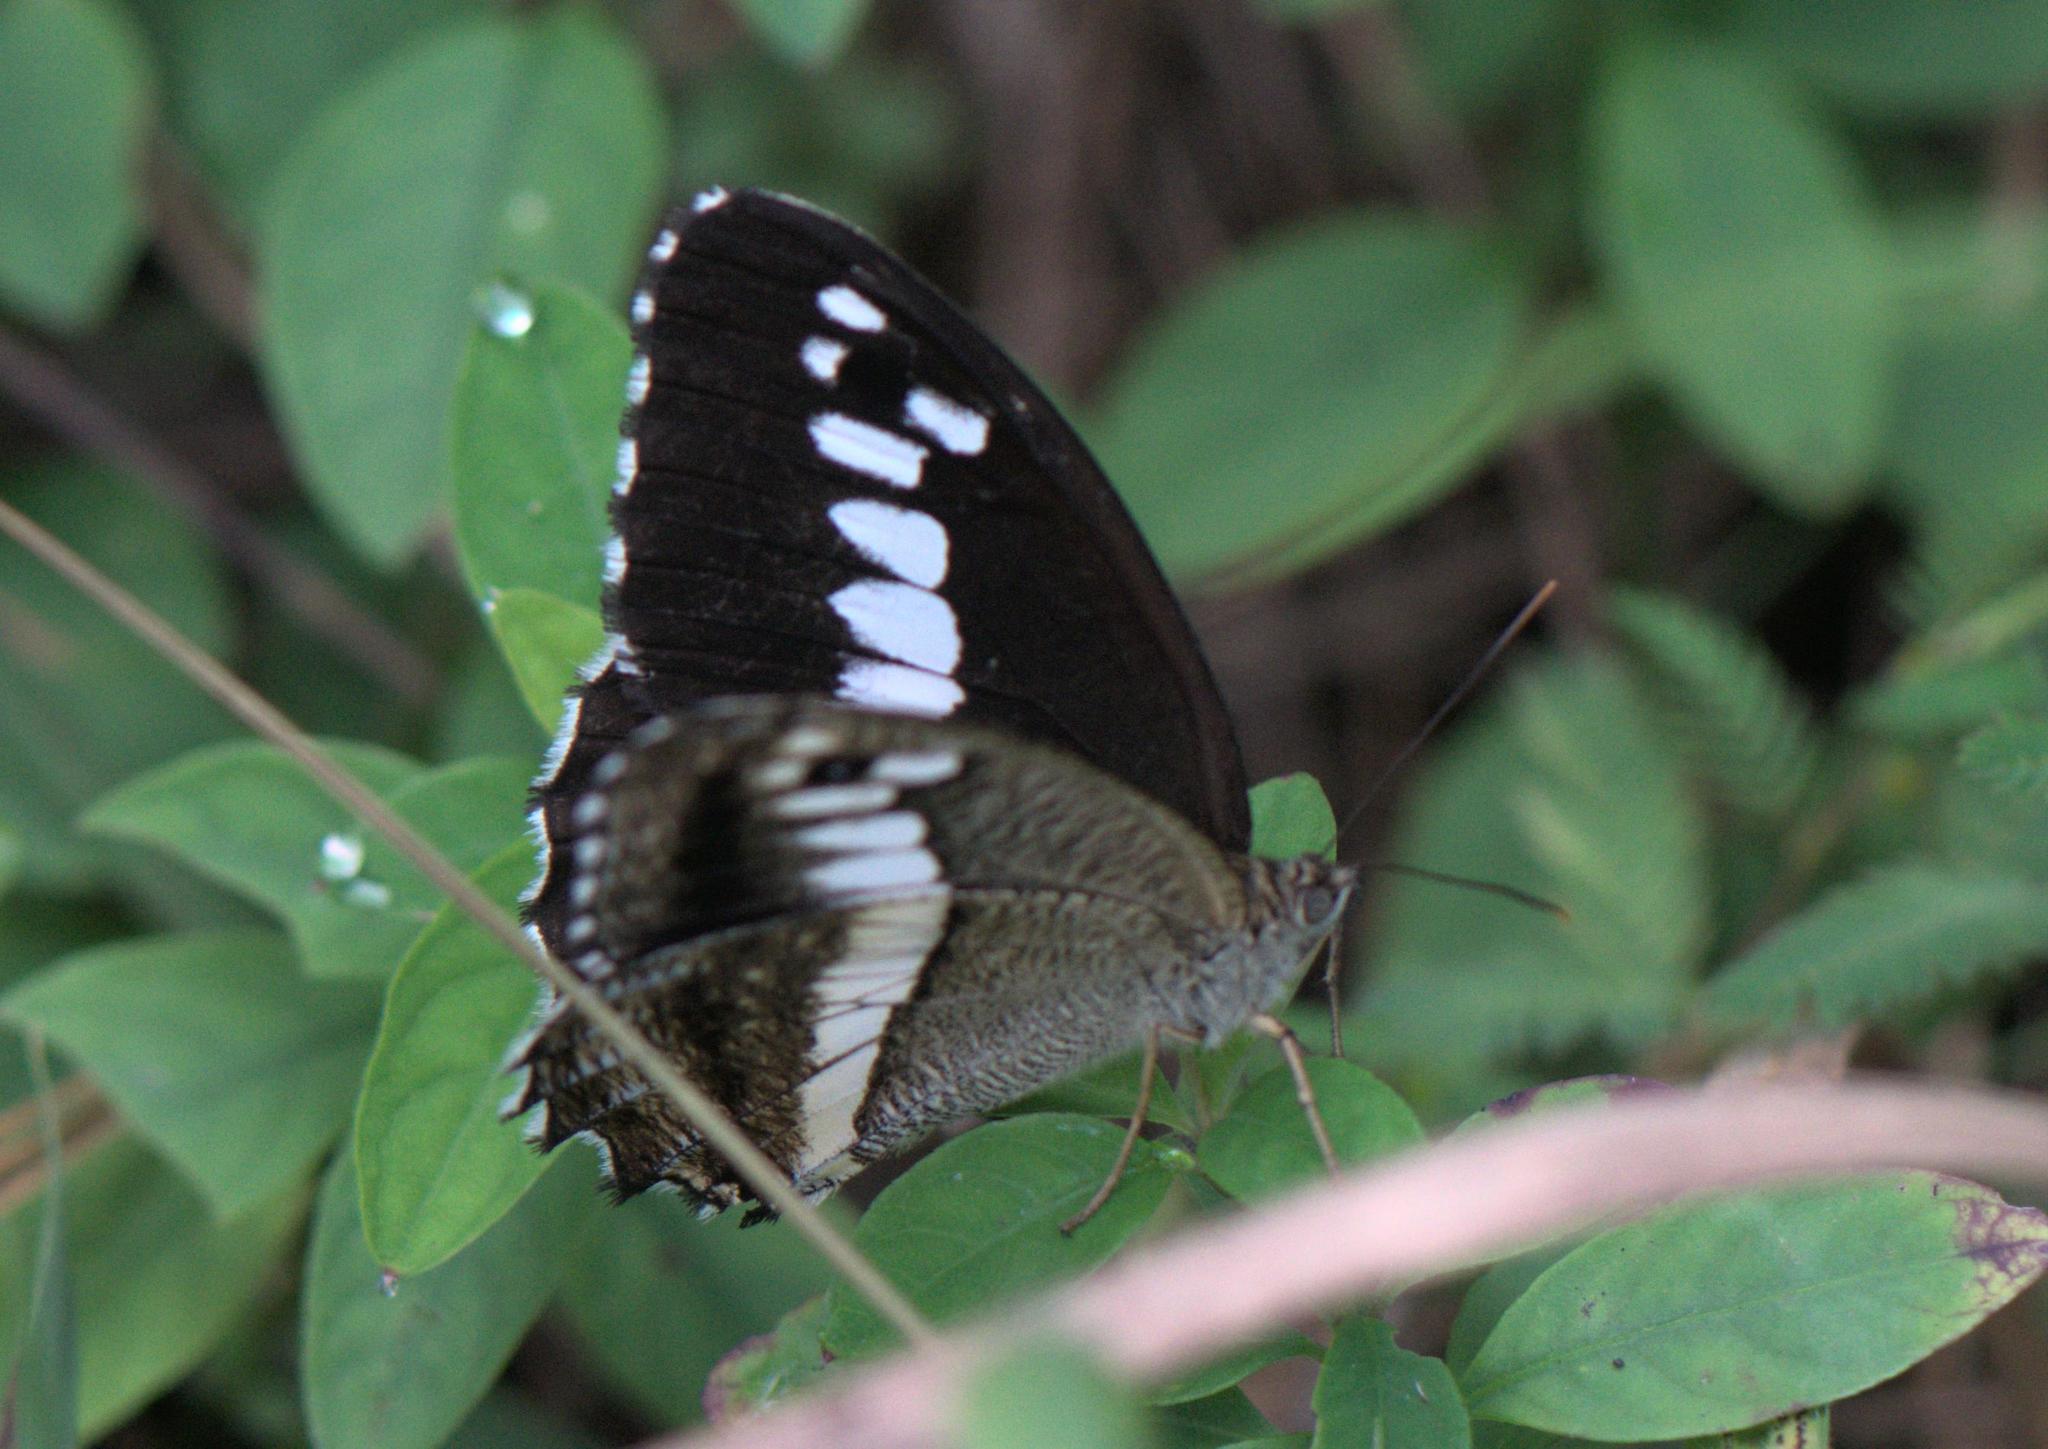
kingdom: Animalia
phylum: Arthropoda
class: Insecta
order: Lepidoptera
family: Nymphalidae
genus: Satyrus
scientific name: Satyrus
